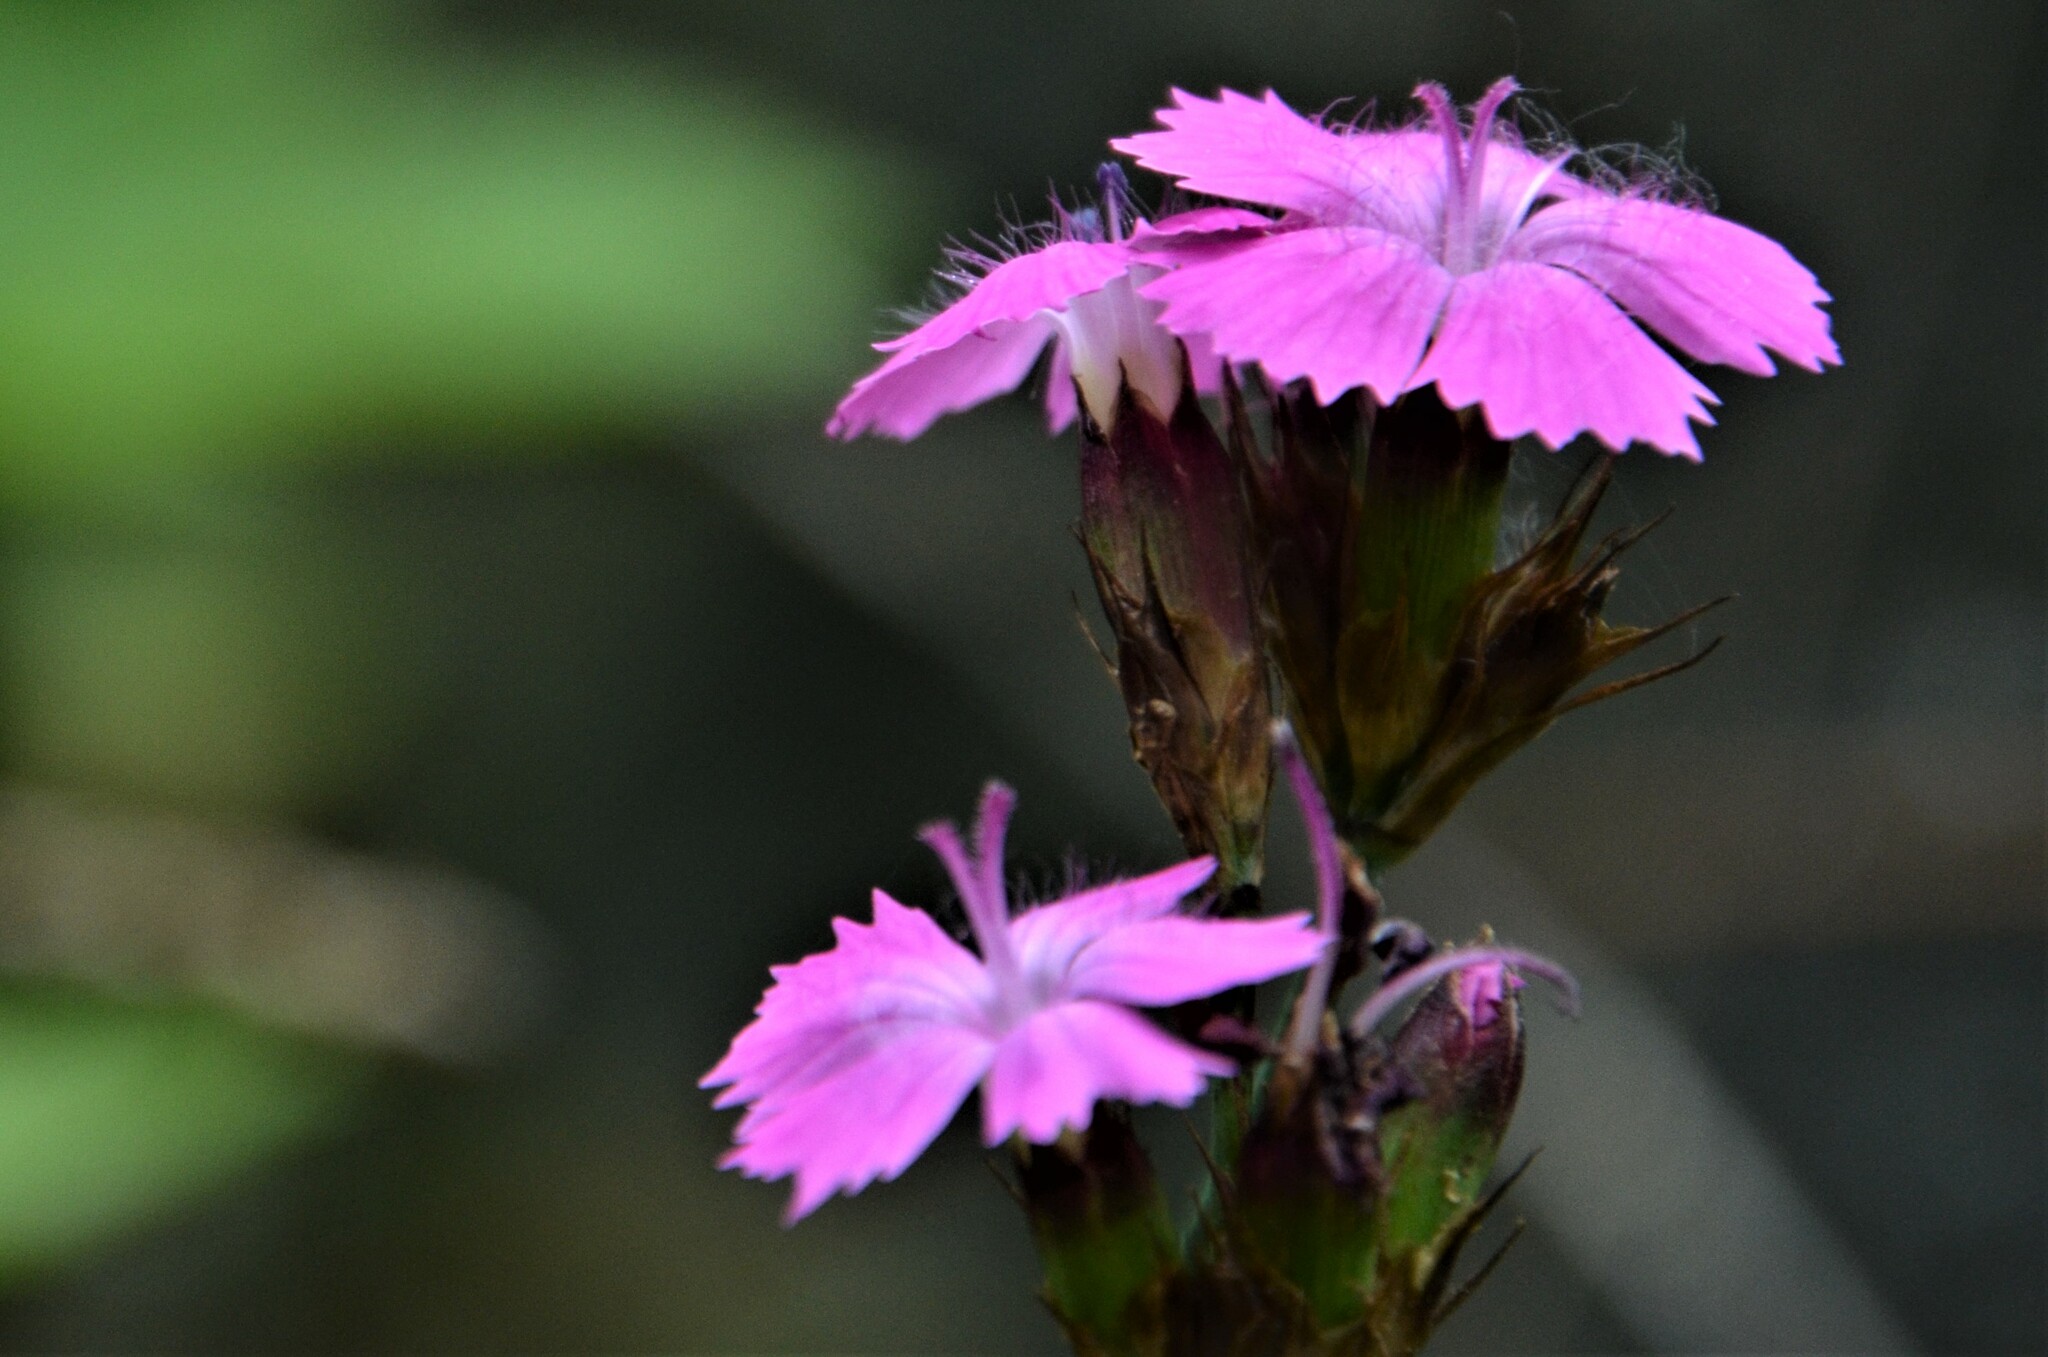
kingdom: Plantae
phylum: Tracheophyta
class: Magnoliopsida
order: Caryophyllales
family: Caryophyllaceae
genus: Dianthus
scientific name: Dianthus carthusianorum
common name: Carthusian pink
